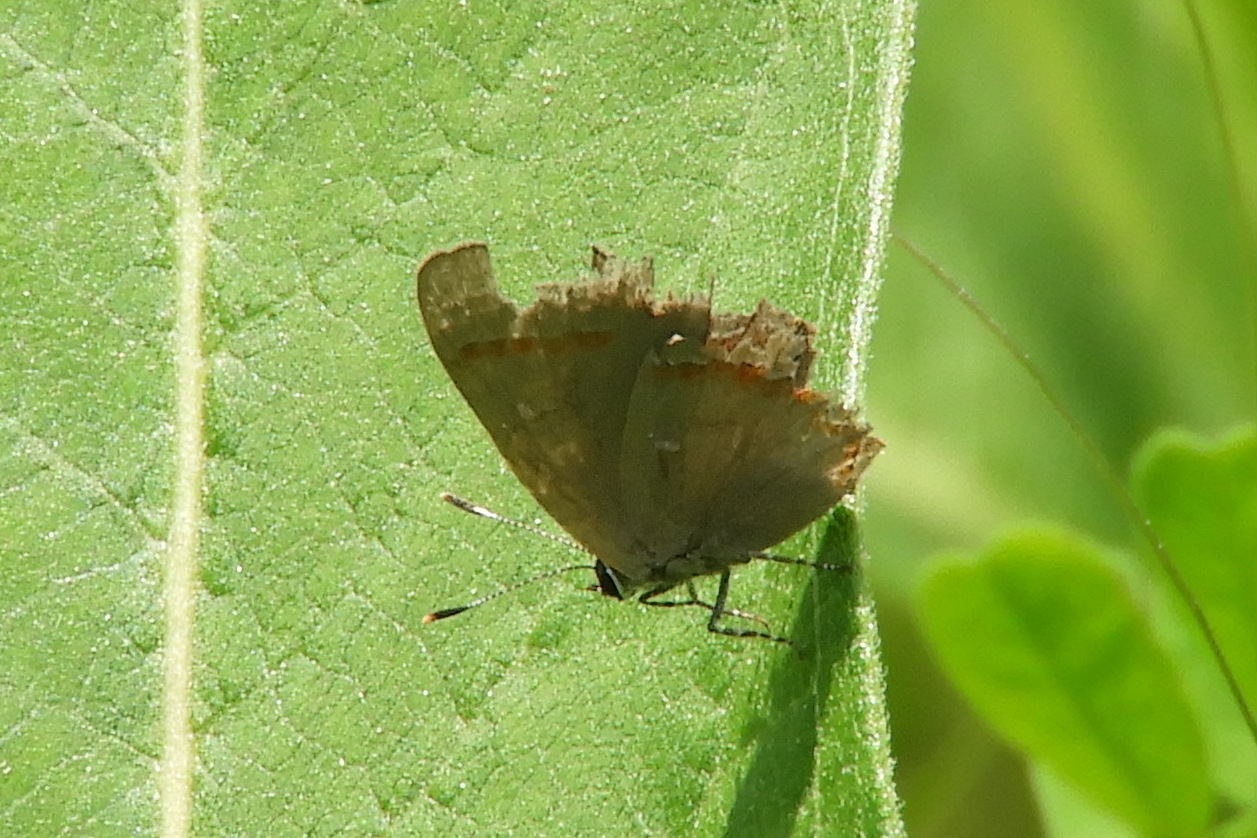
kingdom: Animalia
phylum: Arthropoda
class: Insecta
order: Lepidoptera
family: Lycaenidae
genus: Calycopis
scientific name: Calycopis cecrops
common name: Red-banded hairstreak
